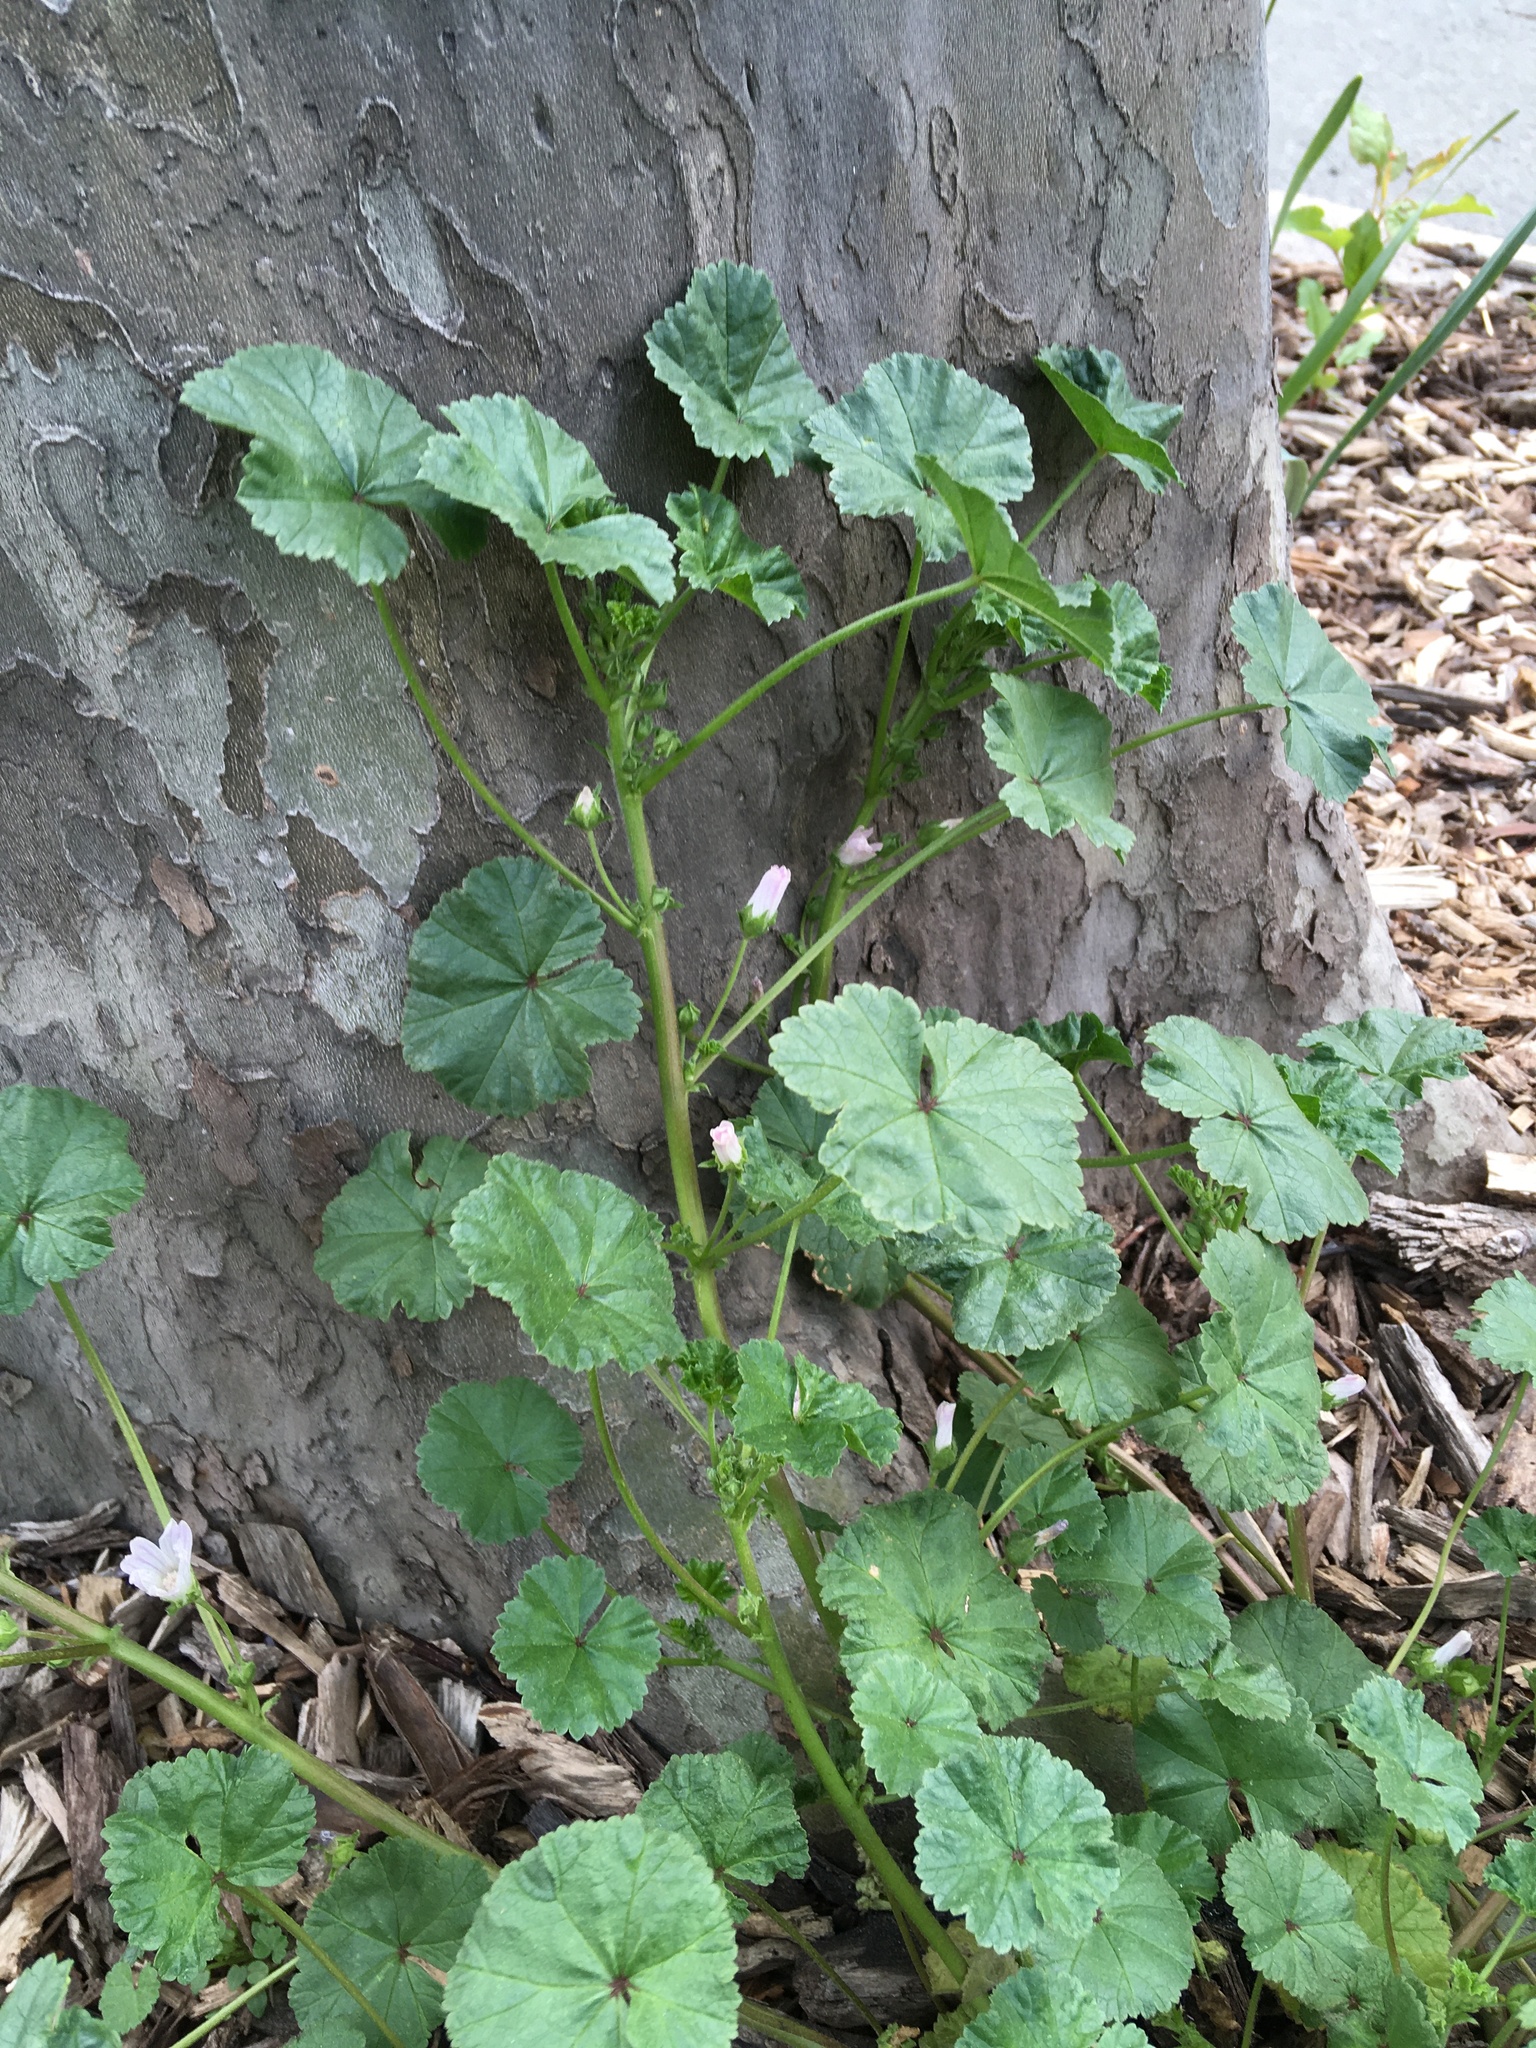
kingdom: Plantae
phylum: Tracheophyta
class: Magnoliopsida
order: Malvales
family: Malvaceae
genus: Malva
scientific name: Malva neglecta
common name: Common mallow
